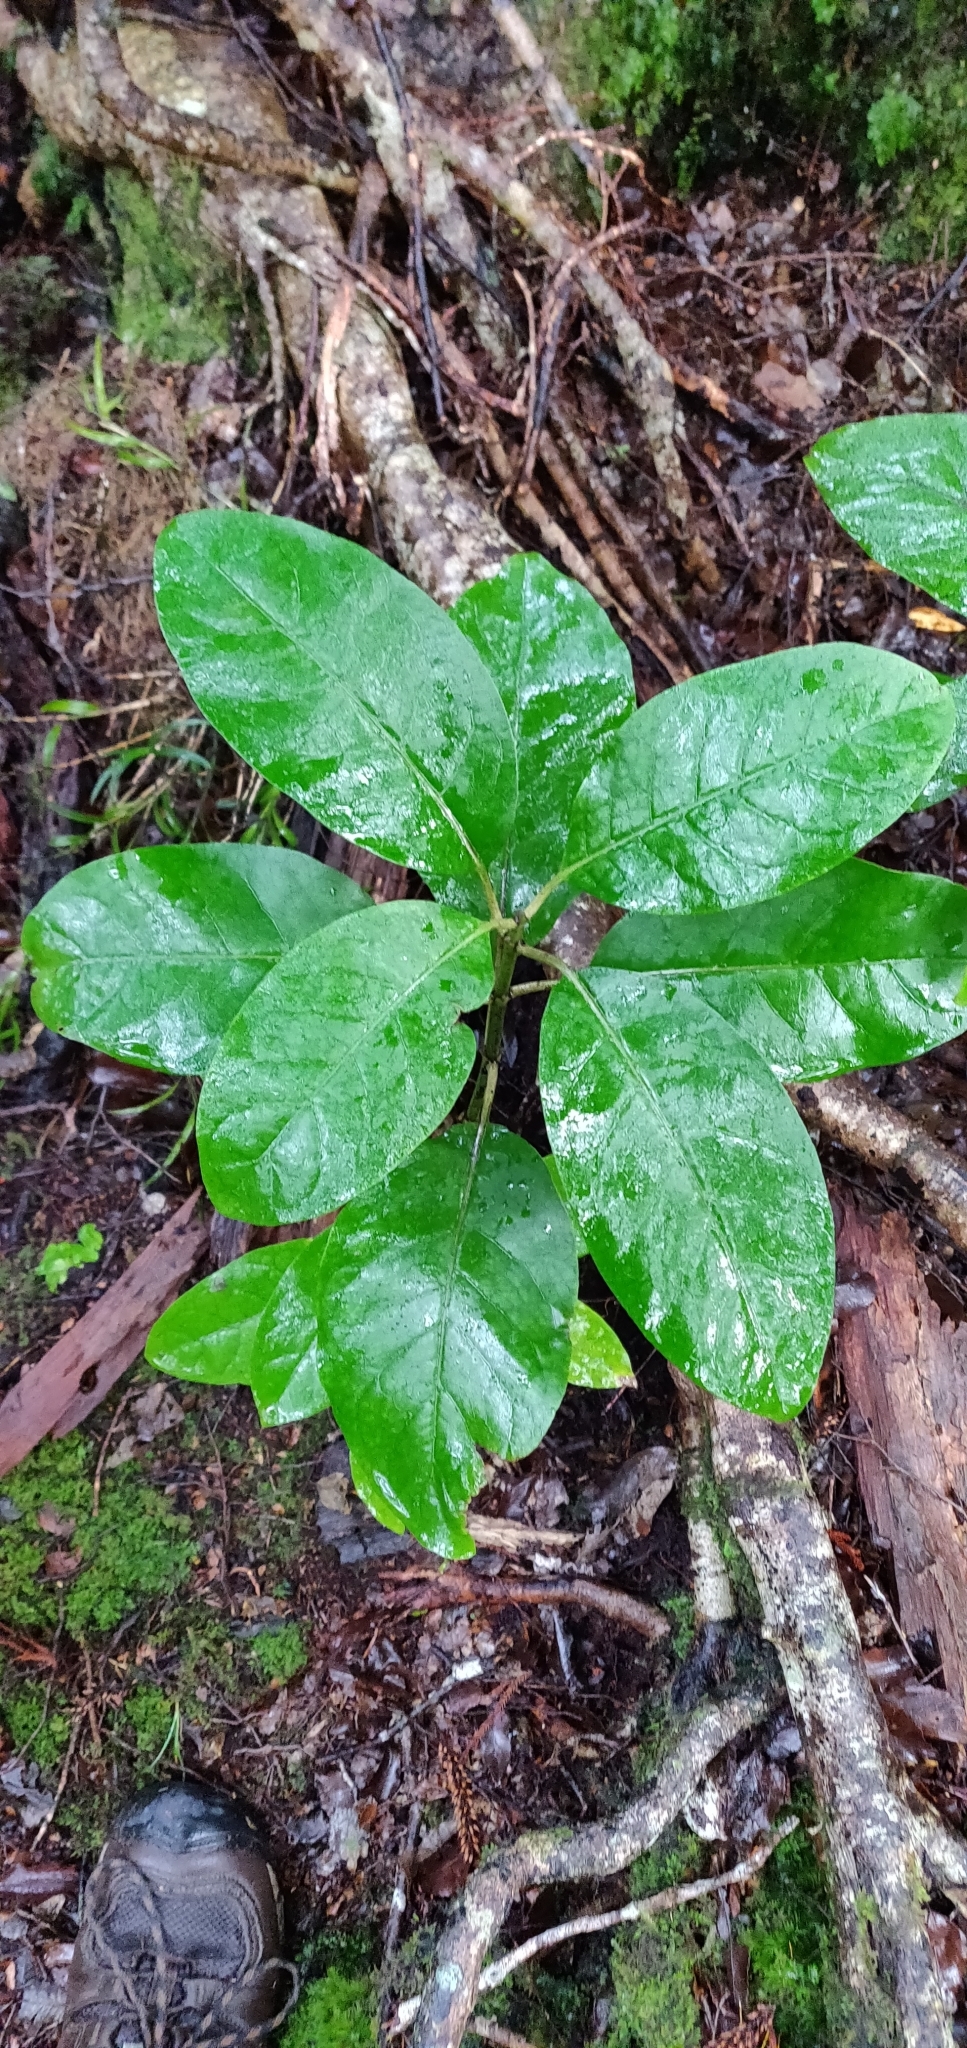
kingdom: Plantae
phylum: Tracheophyta
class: Magnoliopsida
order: Gentianales
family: Rubiaceae
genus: Coprosma
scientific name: Coprosma autumnalis
